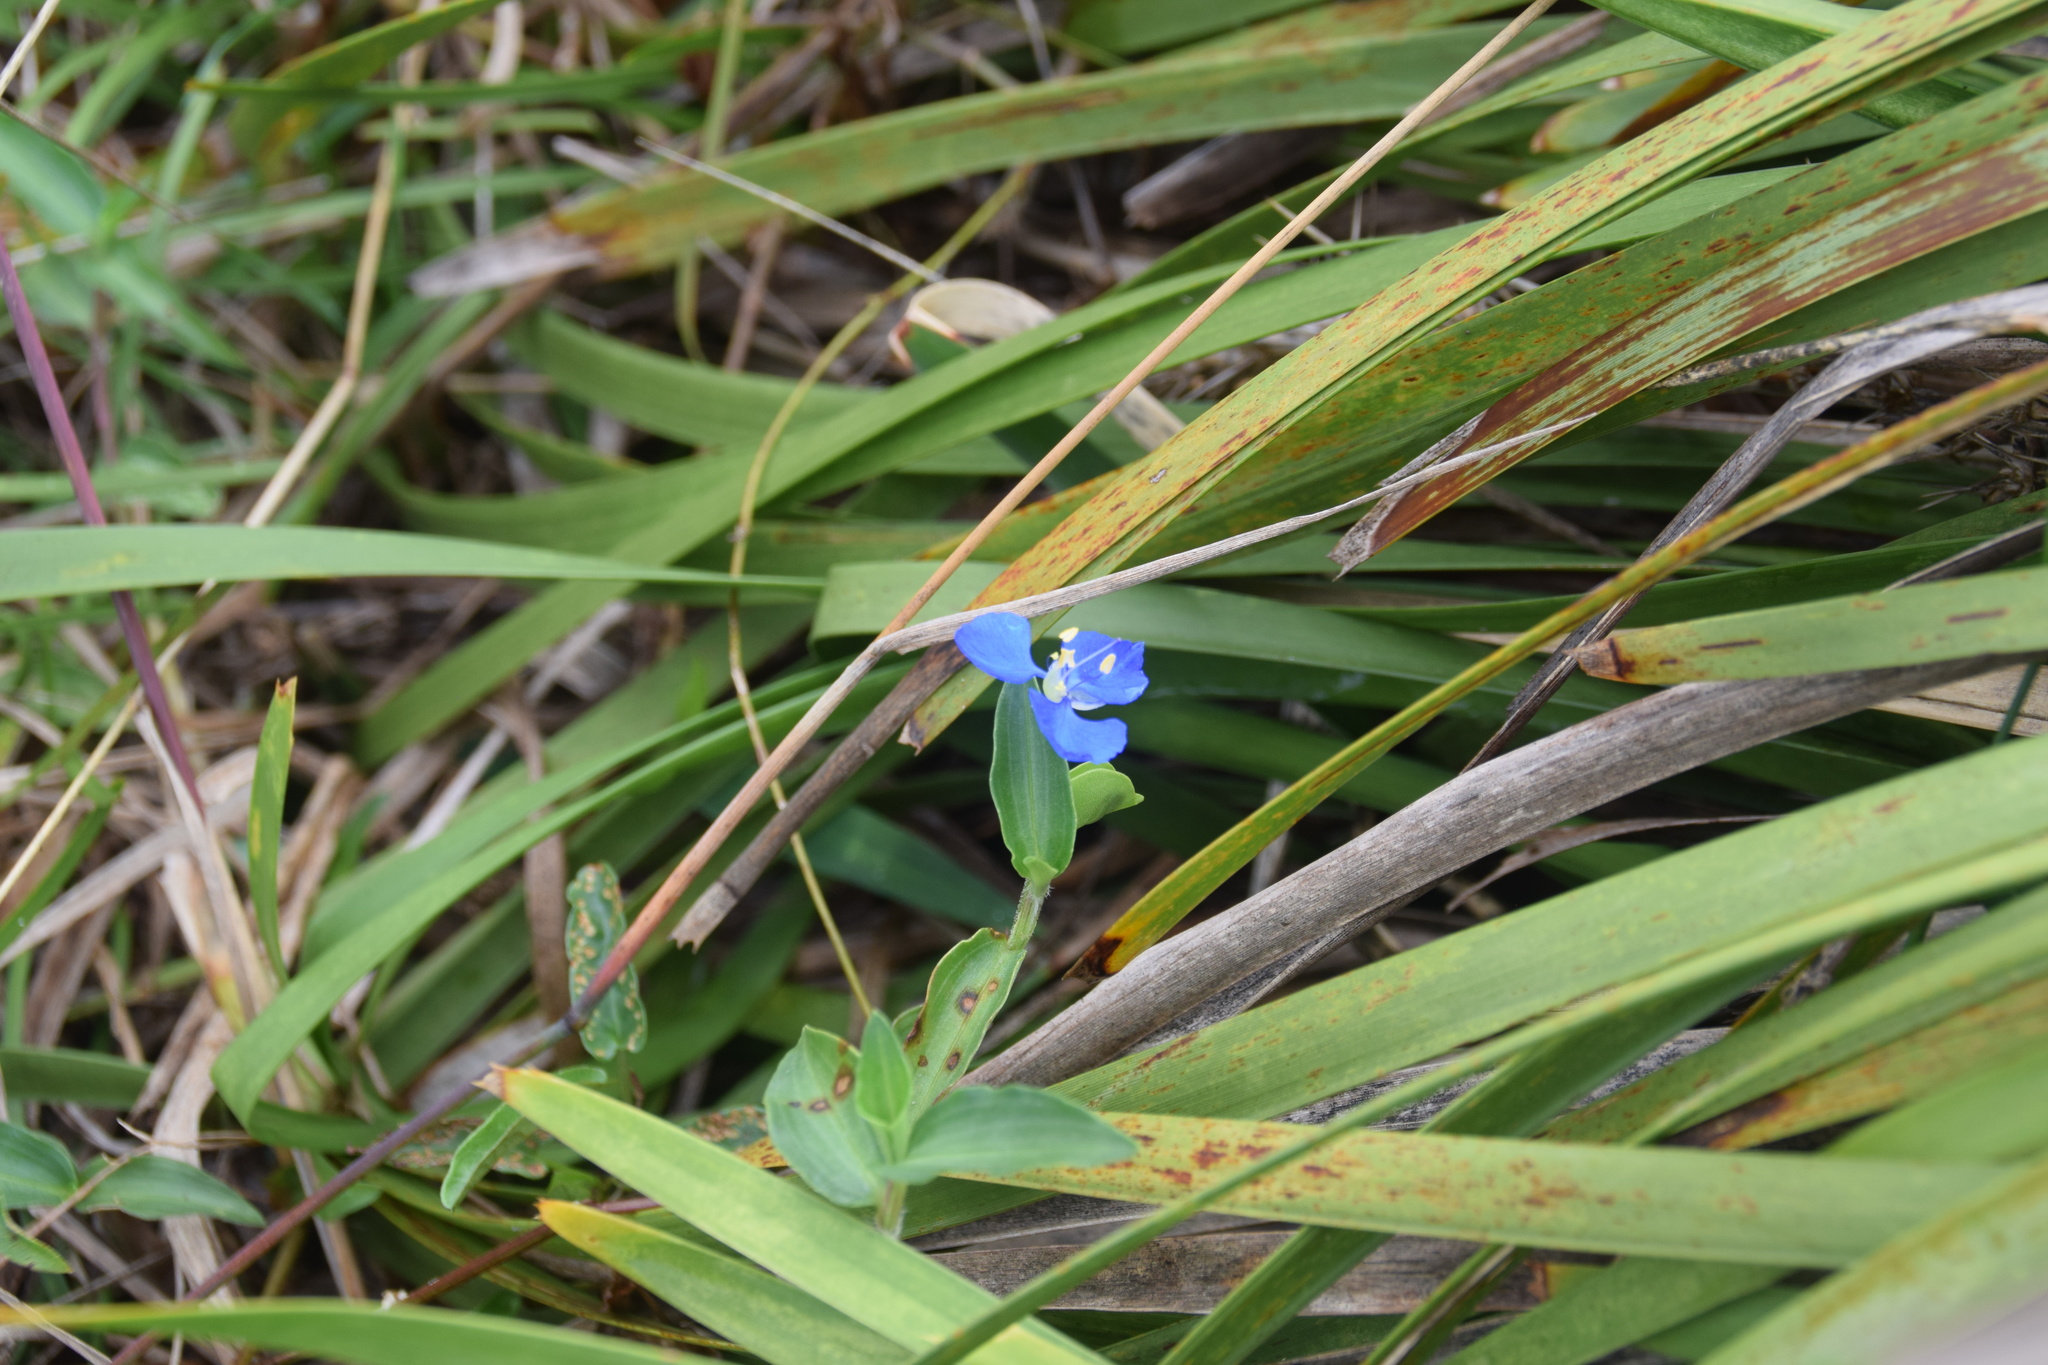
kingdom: Plantae
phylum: Tracheophyta
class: Liliopsida
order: Commelinales
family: Commelinaceae
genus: Commelina
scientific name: Commelina cyanea
